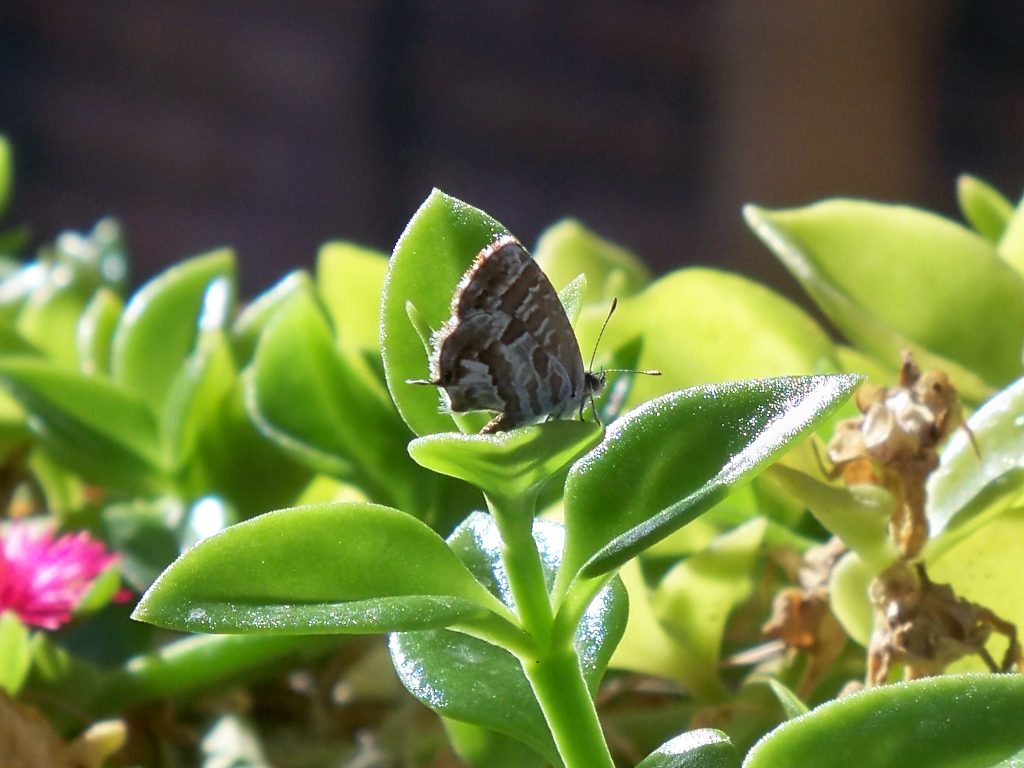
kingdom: Animalia
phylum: Arthropoda
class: Insecta
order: Lepidoptera
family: Lycaenidae
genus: Cacyreus
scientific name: Cacyreus marshalli
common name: Geranium bronze
